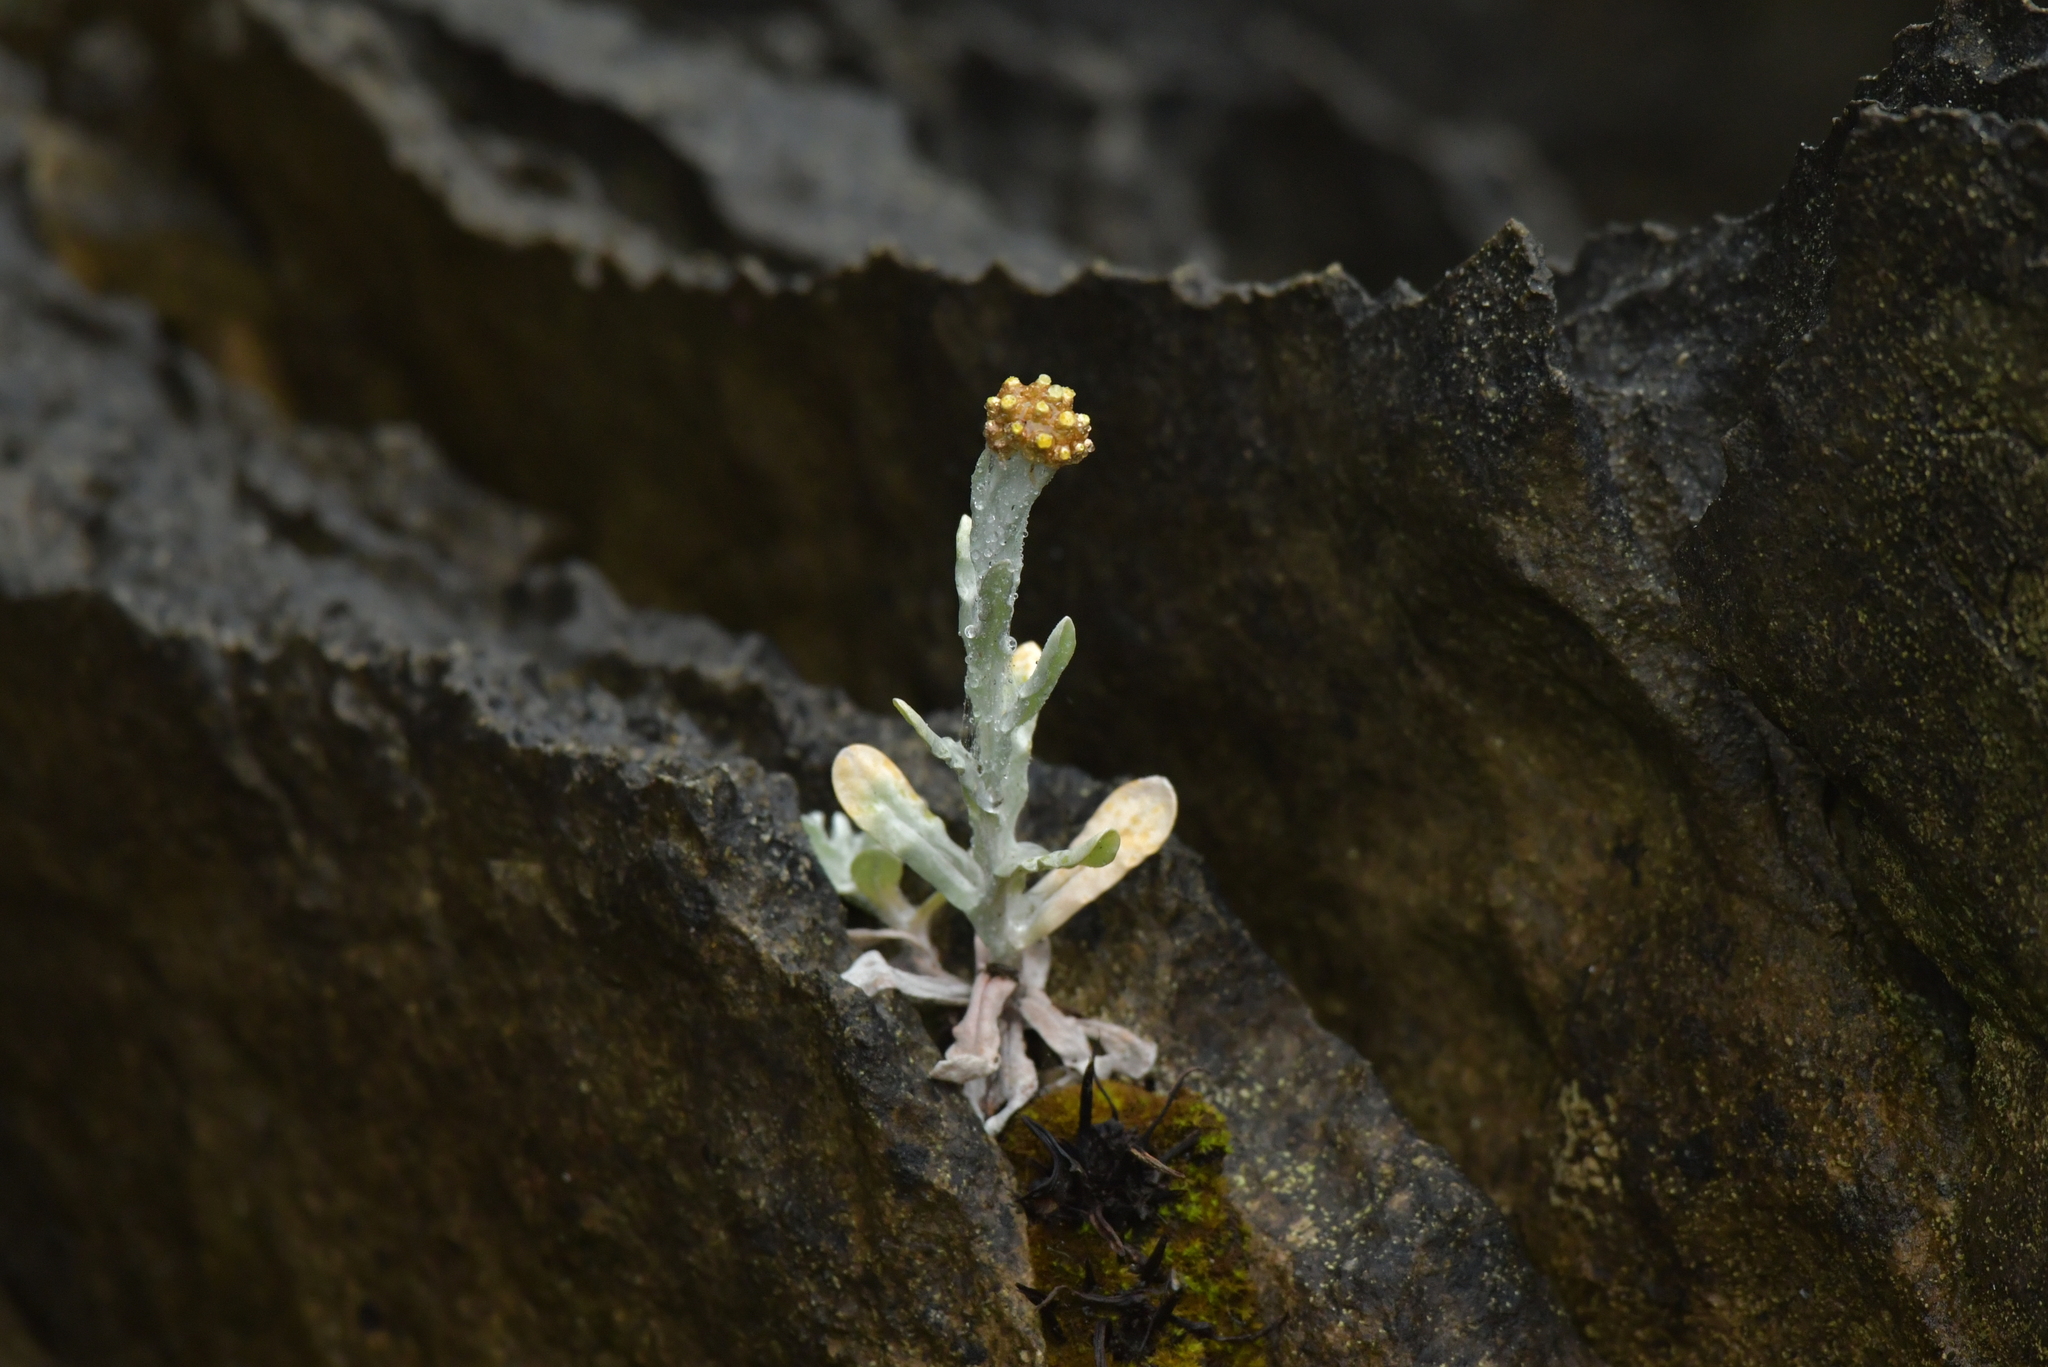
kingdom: Plantae
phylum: Tracheophyta
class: Magnoliopsida
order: Asterales
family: Asteraceae
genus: Helichrysum
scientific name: Helichrysum luteoalbum
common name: Daisy
